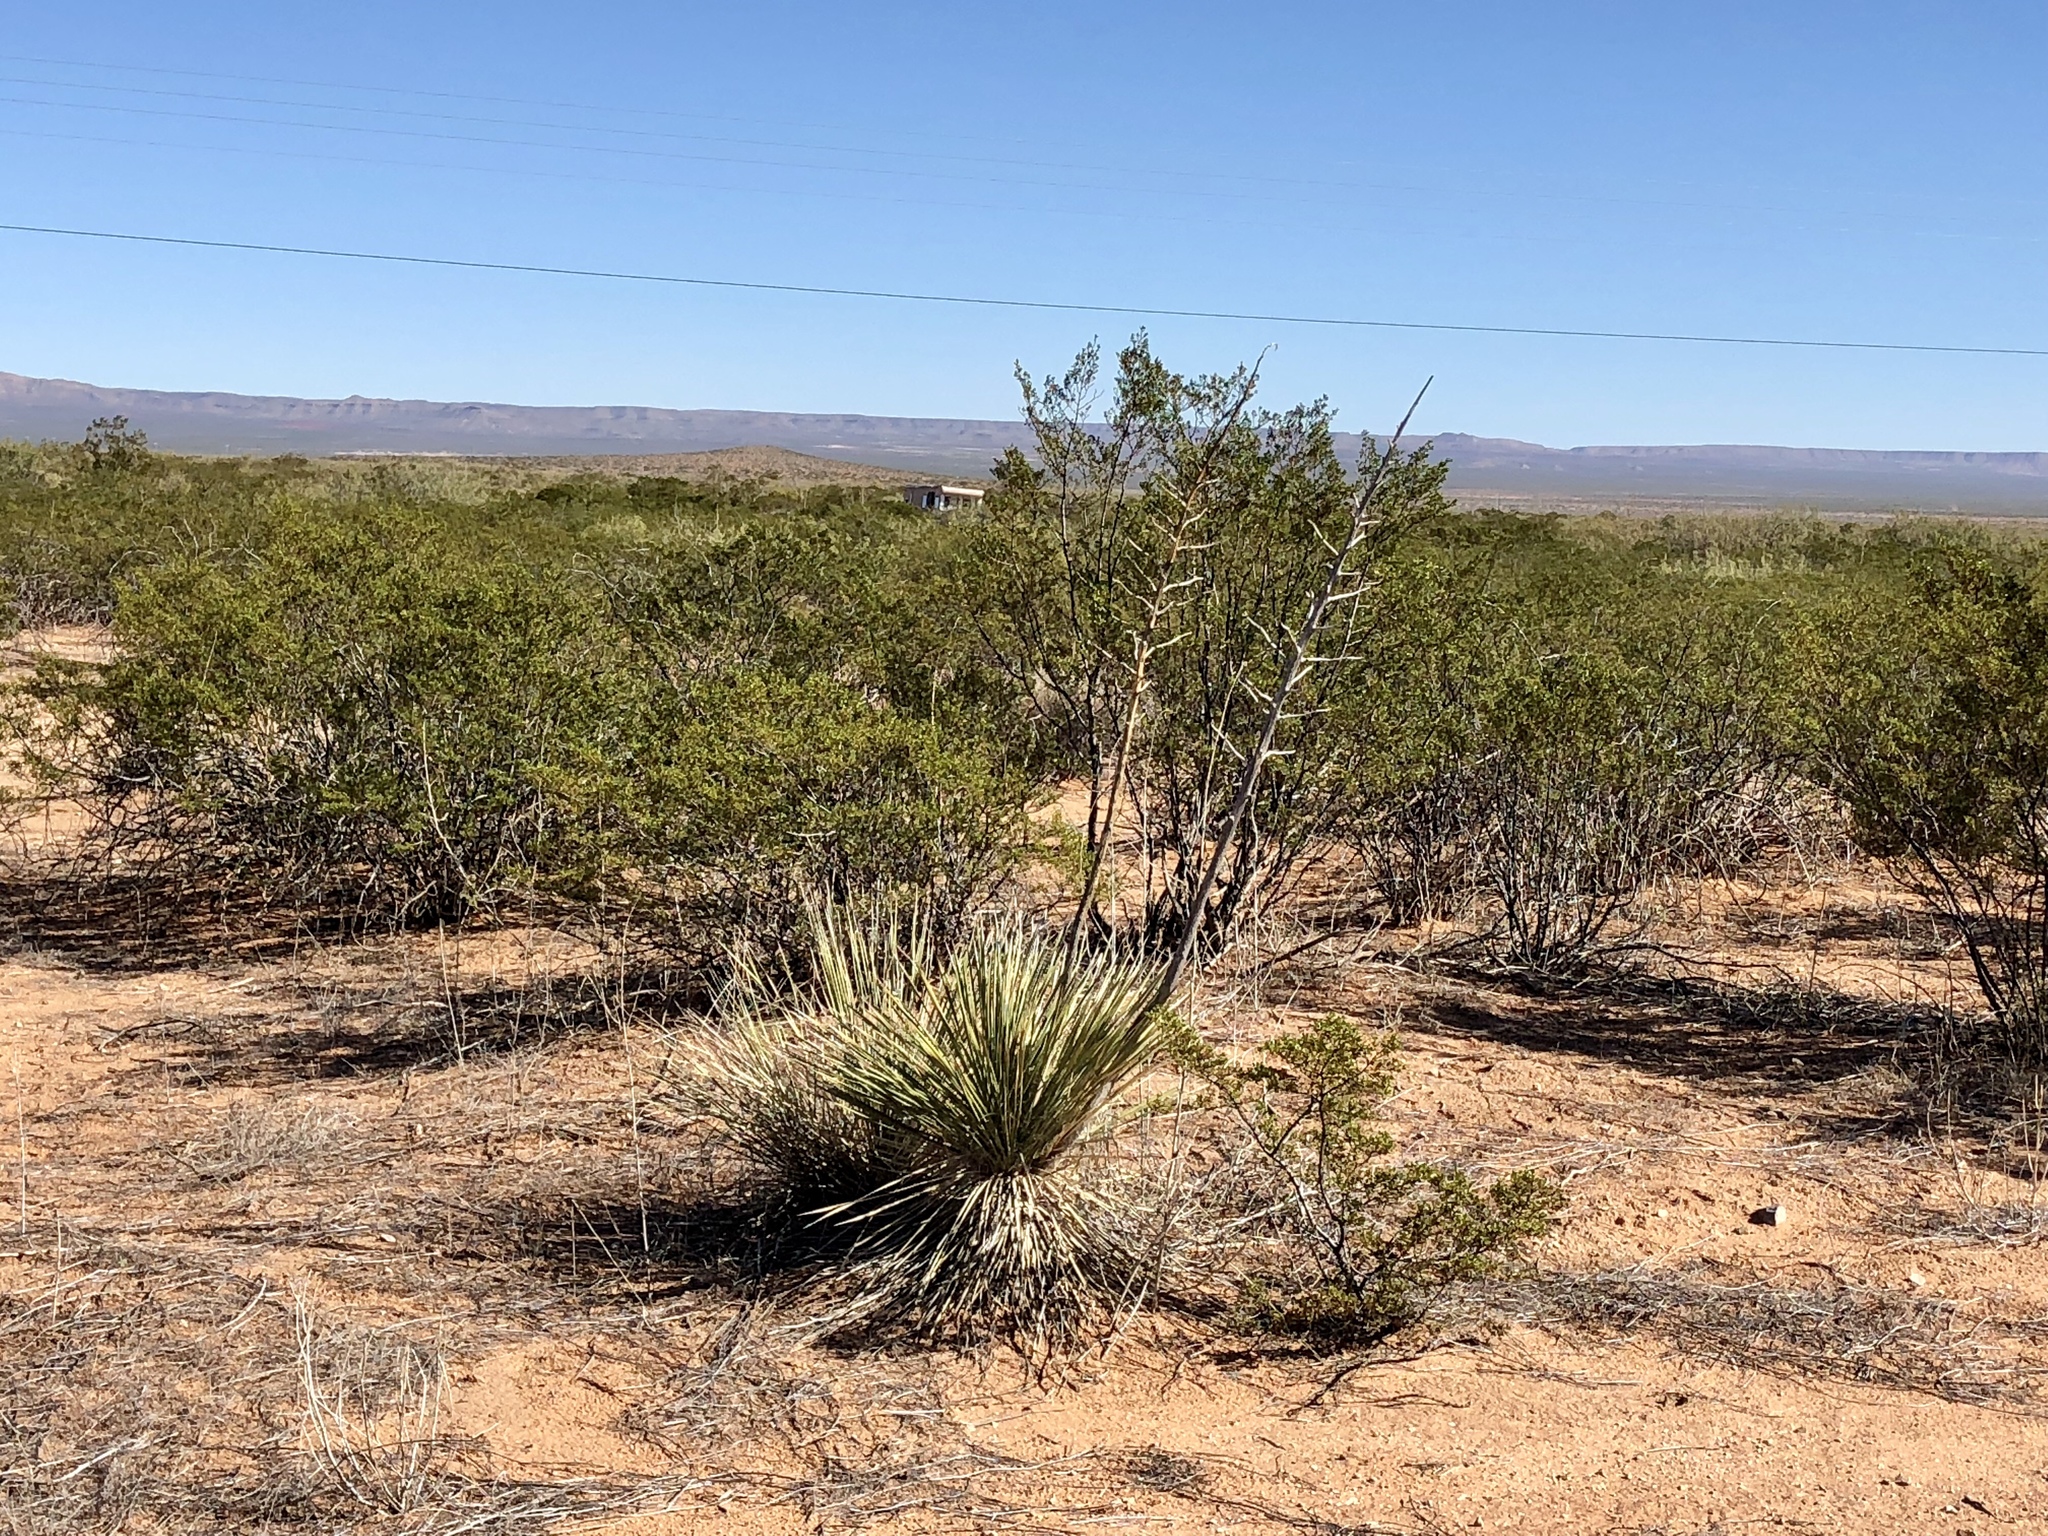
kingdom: Plantae
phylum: Tracheophyta
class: Liliopsida
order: Asparagales
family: Asparagaceae
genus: Yucca
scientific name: Yucca elata
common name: Palmella
